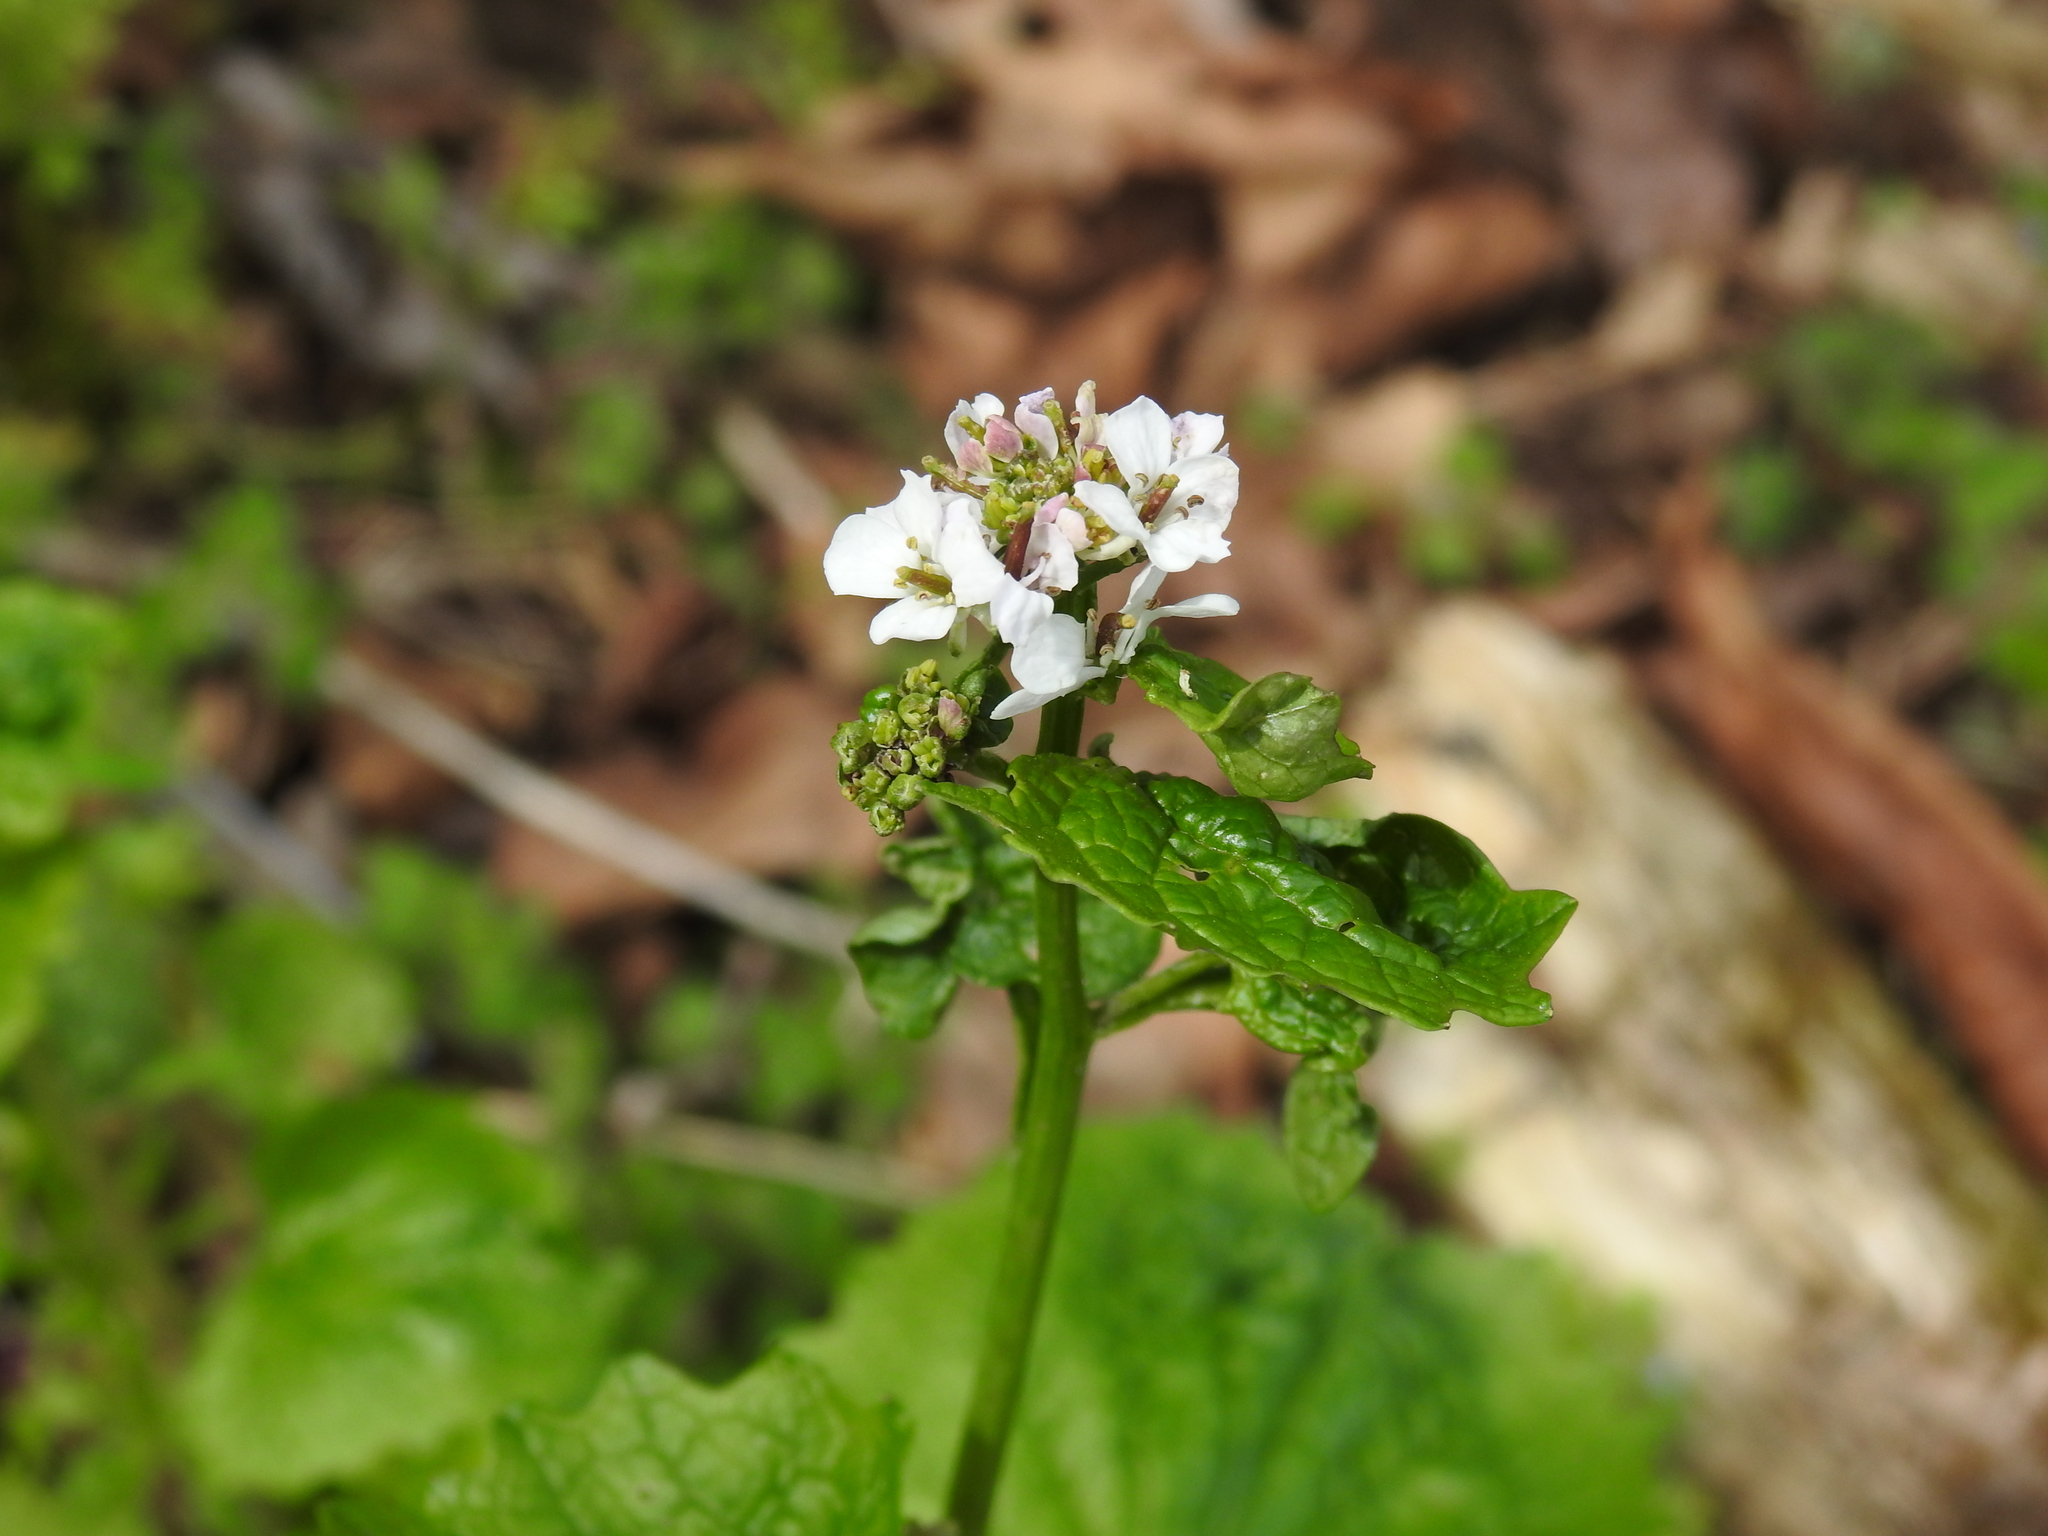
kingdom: Plantae
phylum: Tracheophyta
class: Magnoliopsida
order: Brassicales
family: Brassicaceae
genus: Alliaria
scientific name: Alliaria petiolata
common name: Garlic mustard
